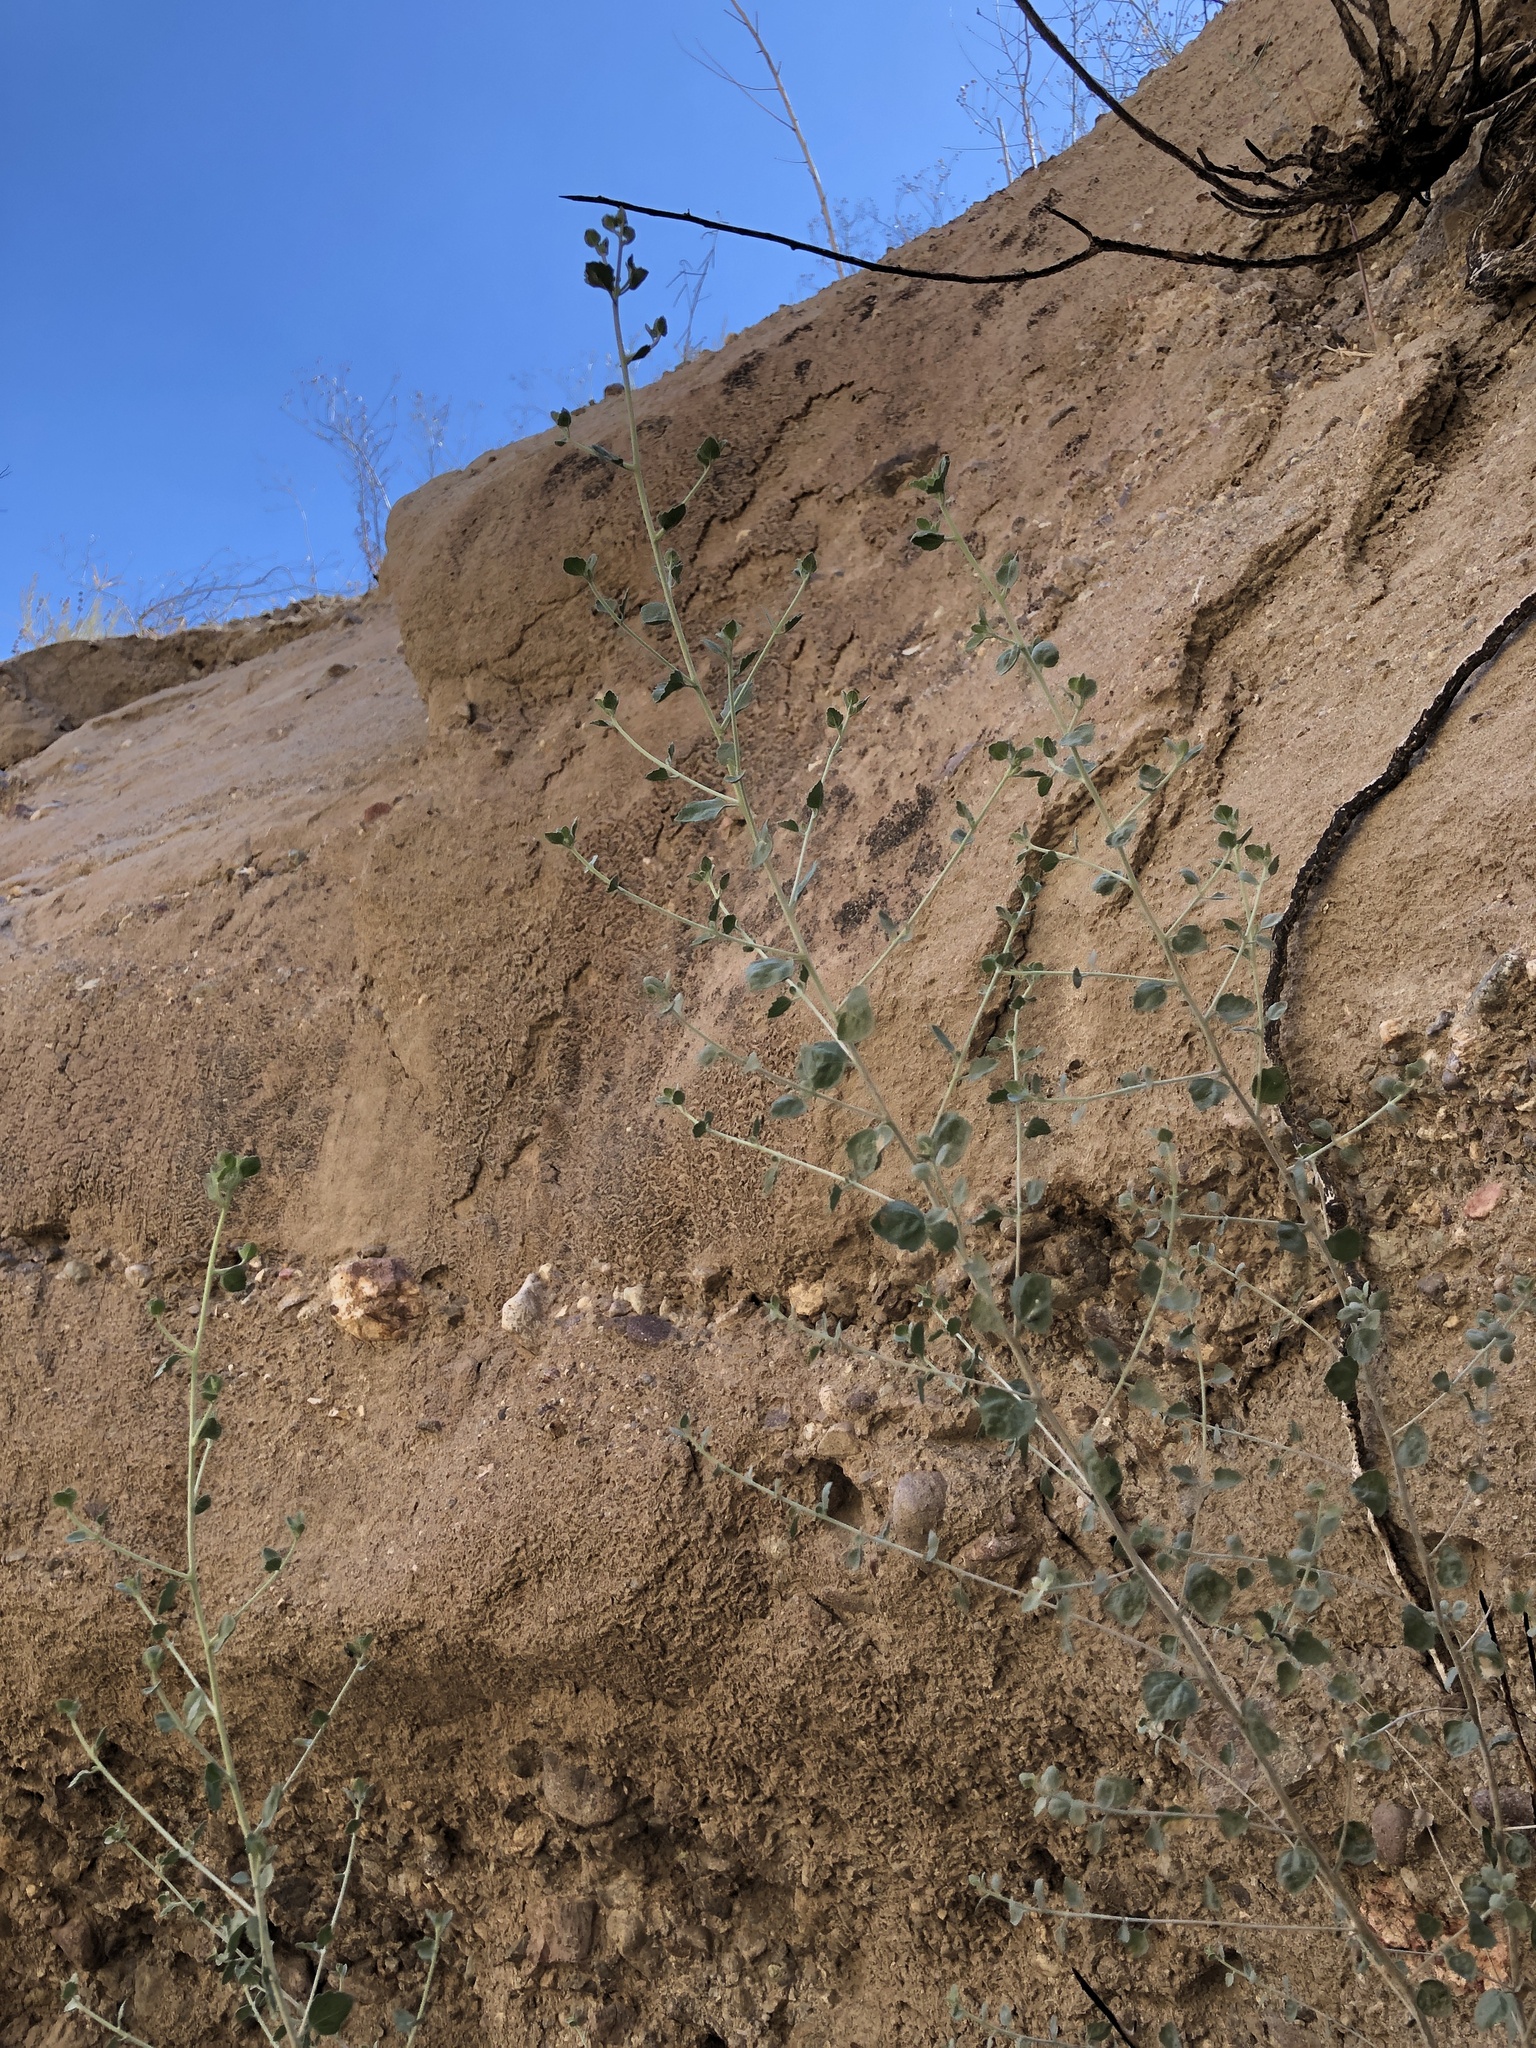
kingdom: Plantae
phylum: Tracheophyta
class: Magnoliopsida
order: Asterales
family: Asteraceae
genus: Brickellia
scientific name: Brickellia nevinii
